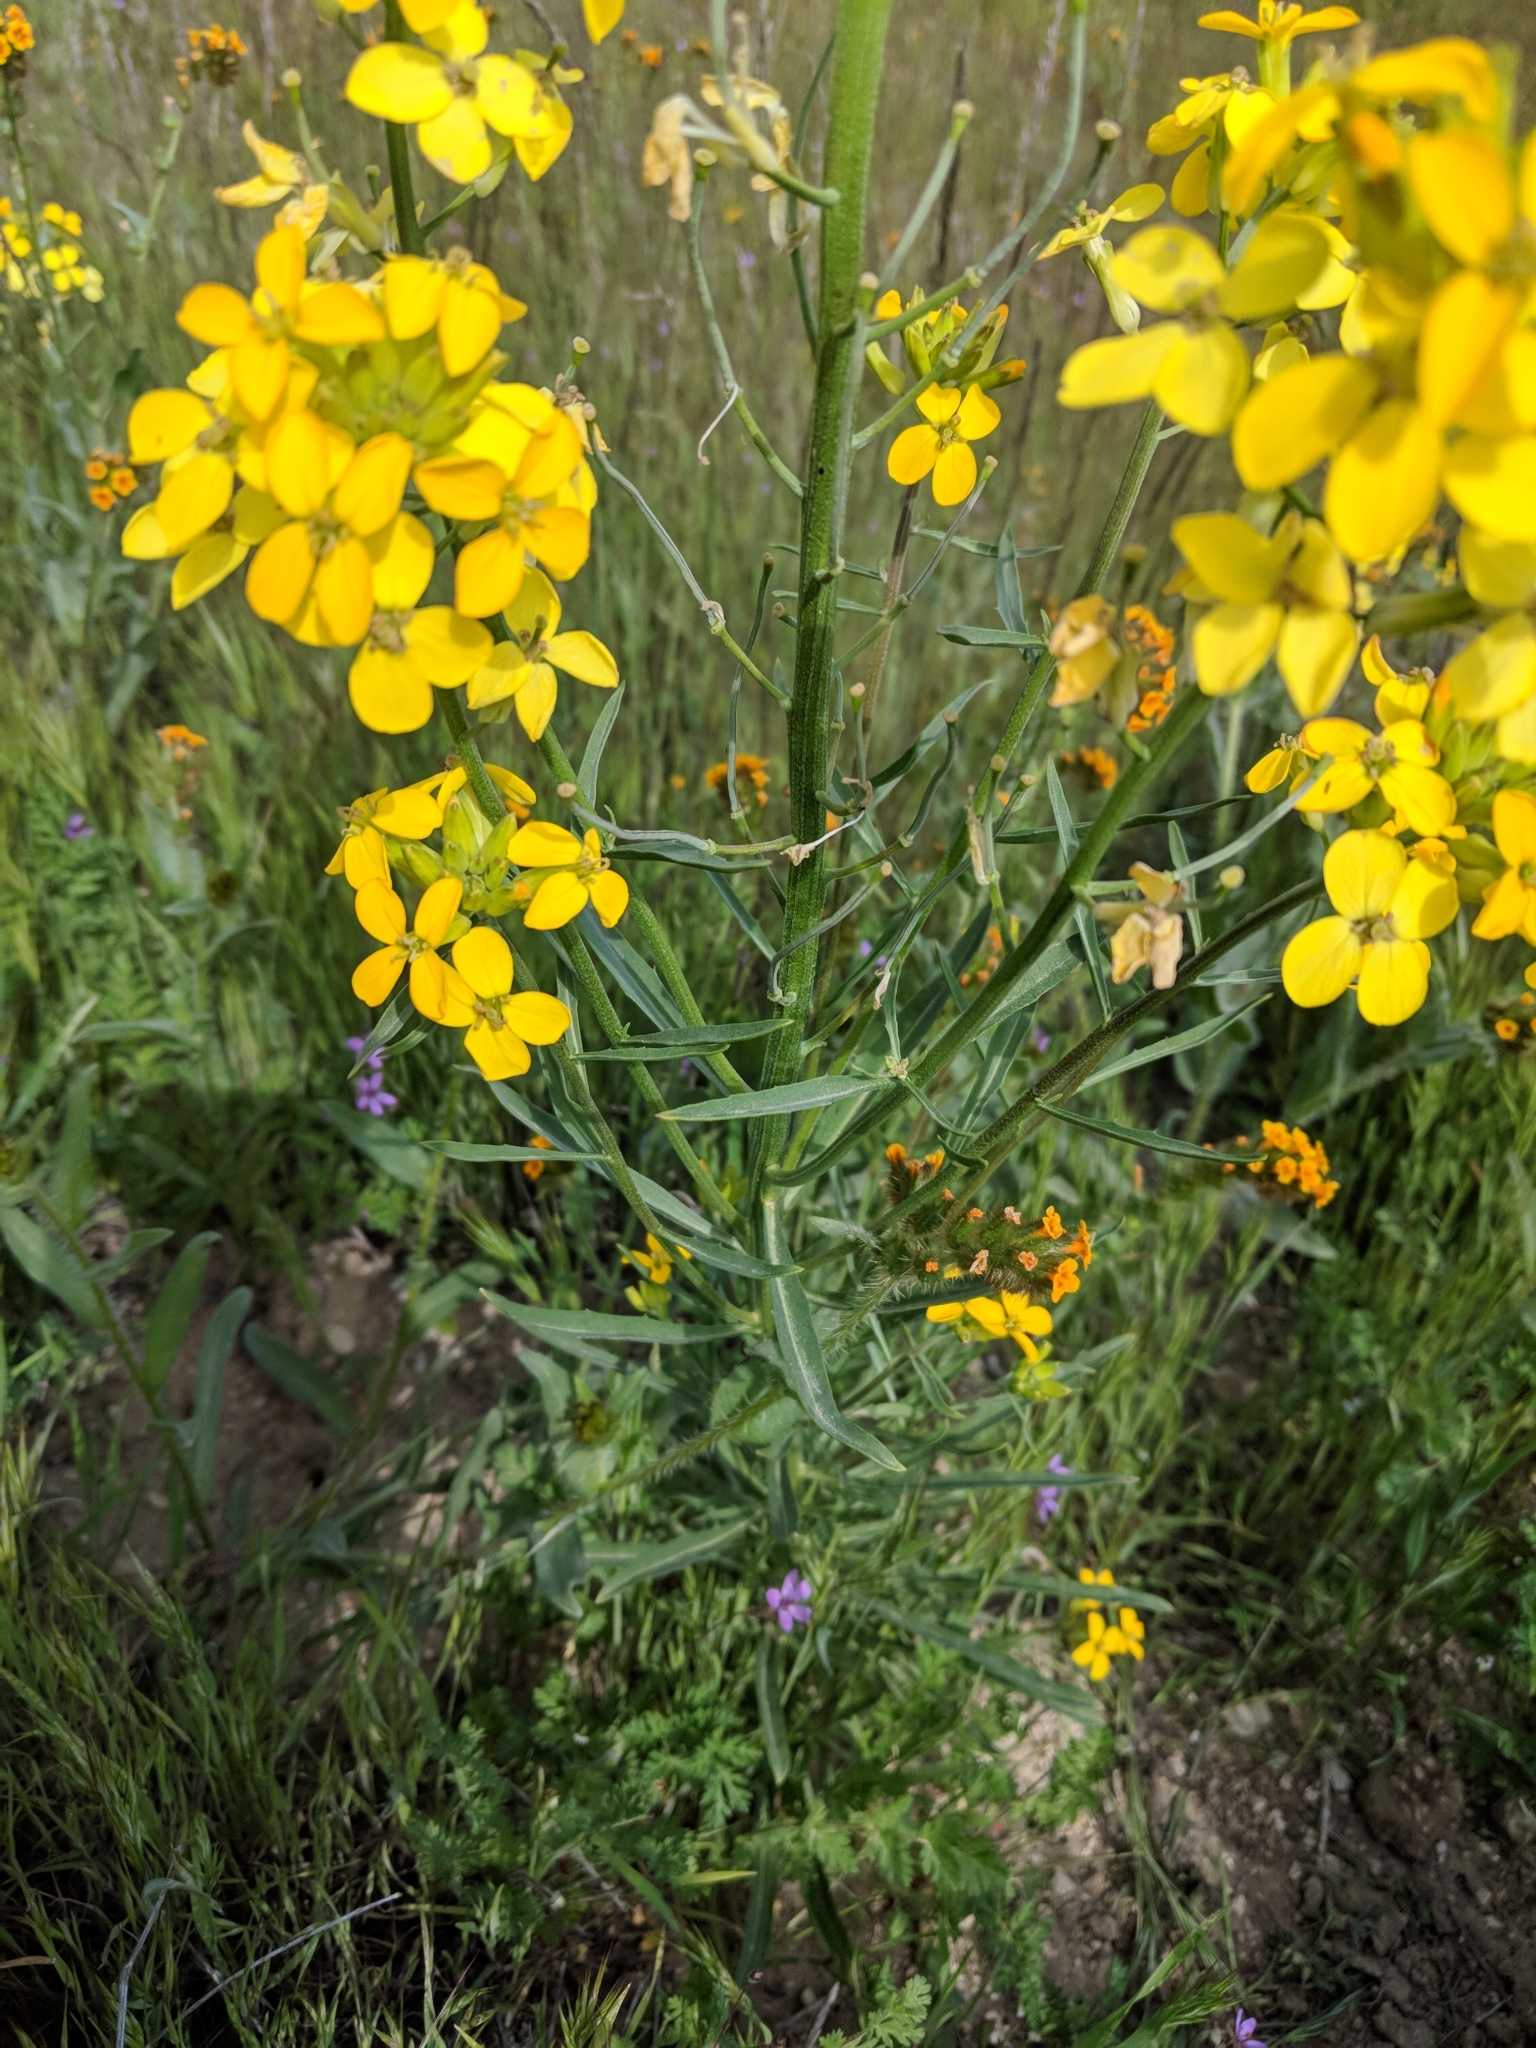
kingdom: Plantae
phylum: Tracheophyta
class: Magnoliopsida
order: Brassicales
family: Brassicaceae
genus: Erysimum
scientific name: Erysimum capitatum
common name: Western wallflower
